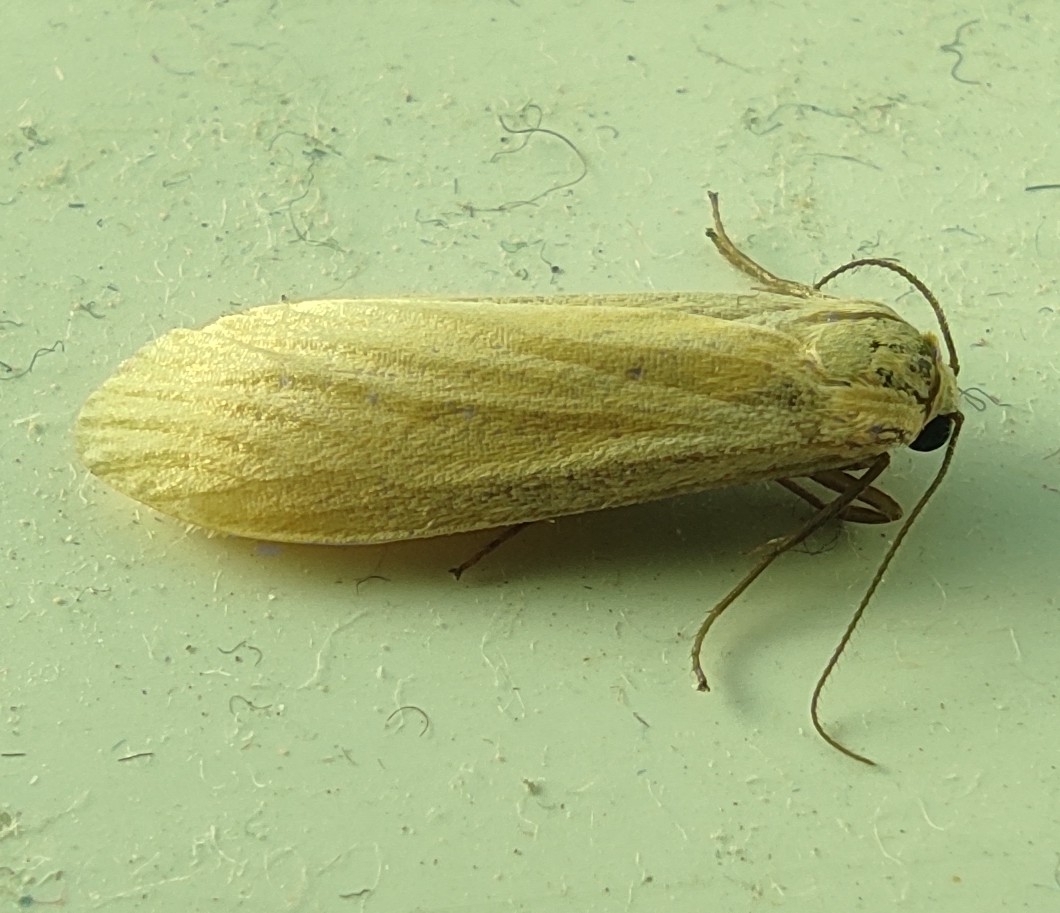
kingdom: Animalia
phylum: Arthropoda
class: Insecta
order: Lepidoptera
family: Erebidae
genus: Wittia
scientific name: Wittia sororcula
